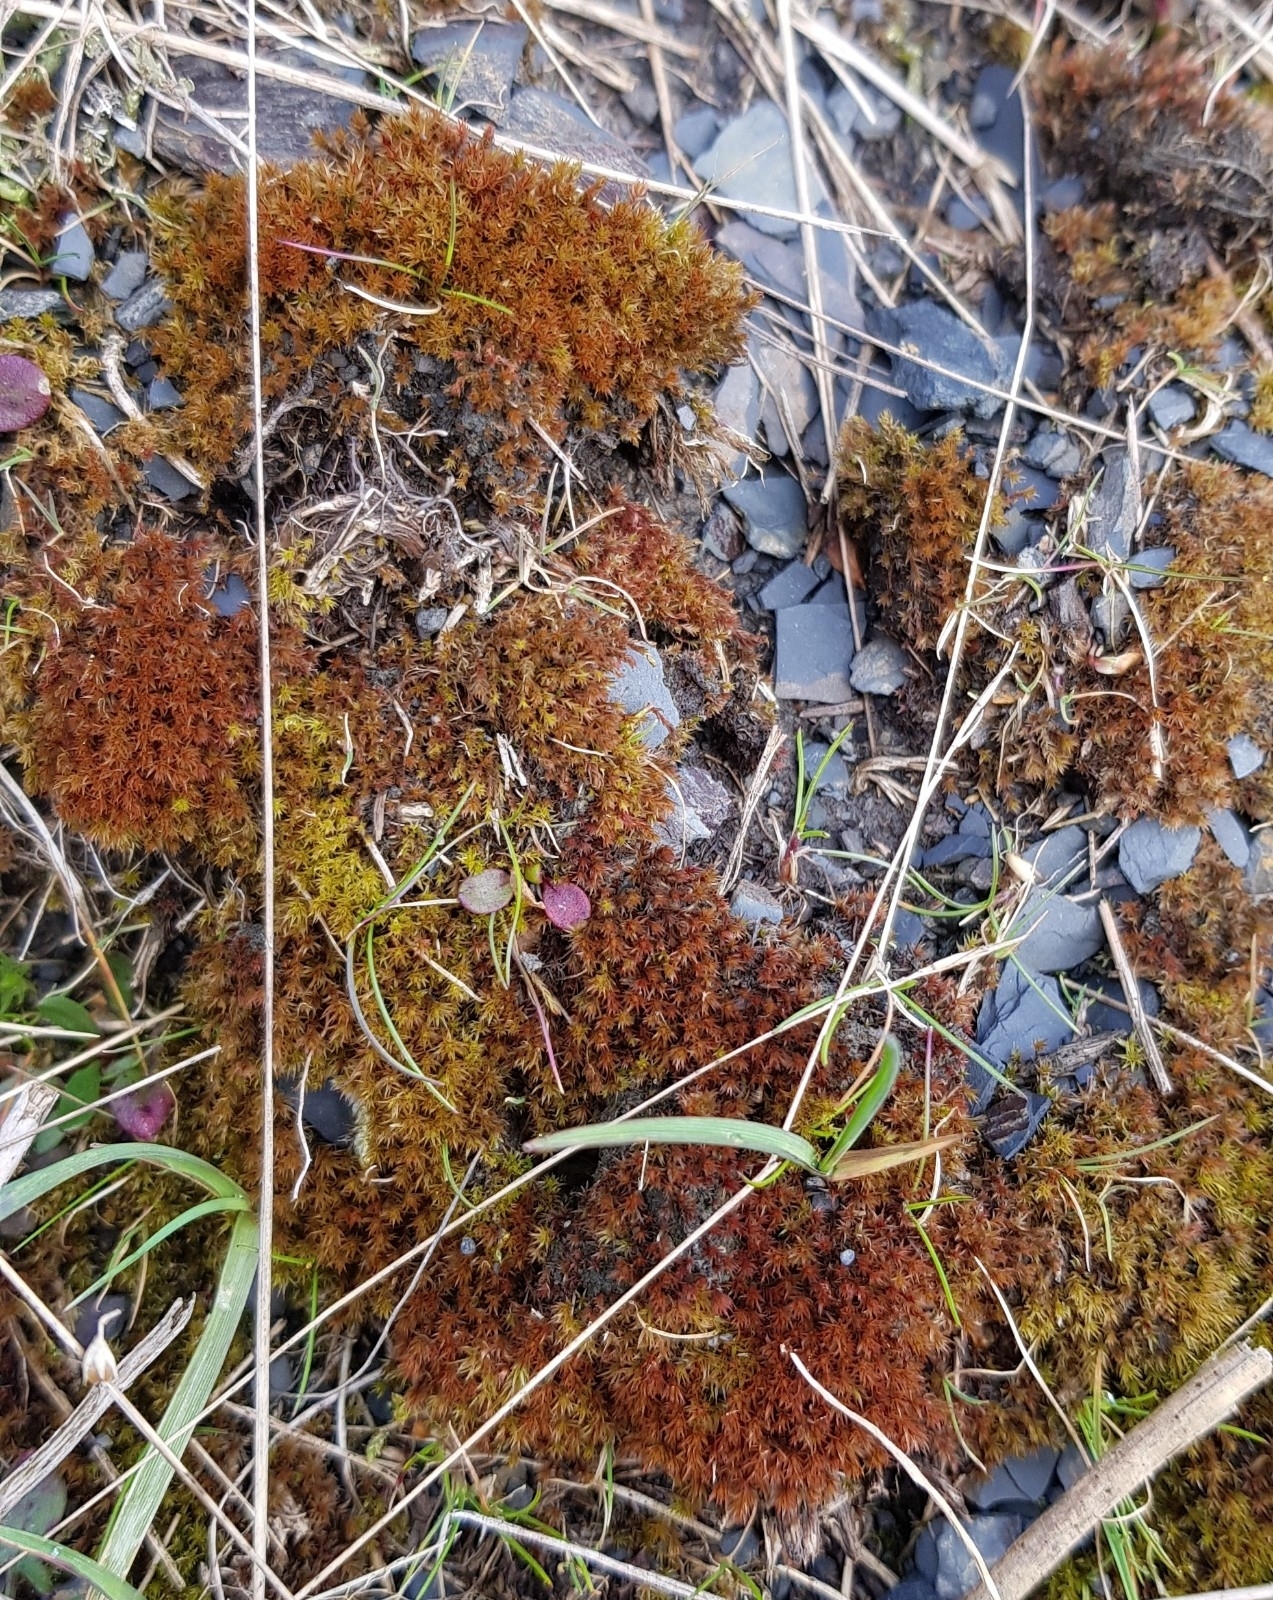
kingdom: Plantae
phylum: Bryophyta
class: Bryopsida
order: Dicranales
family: Ditrichaceae
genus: Ceratodon
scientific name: Ceratodon purpureus
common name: Redshank
